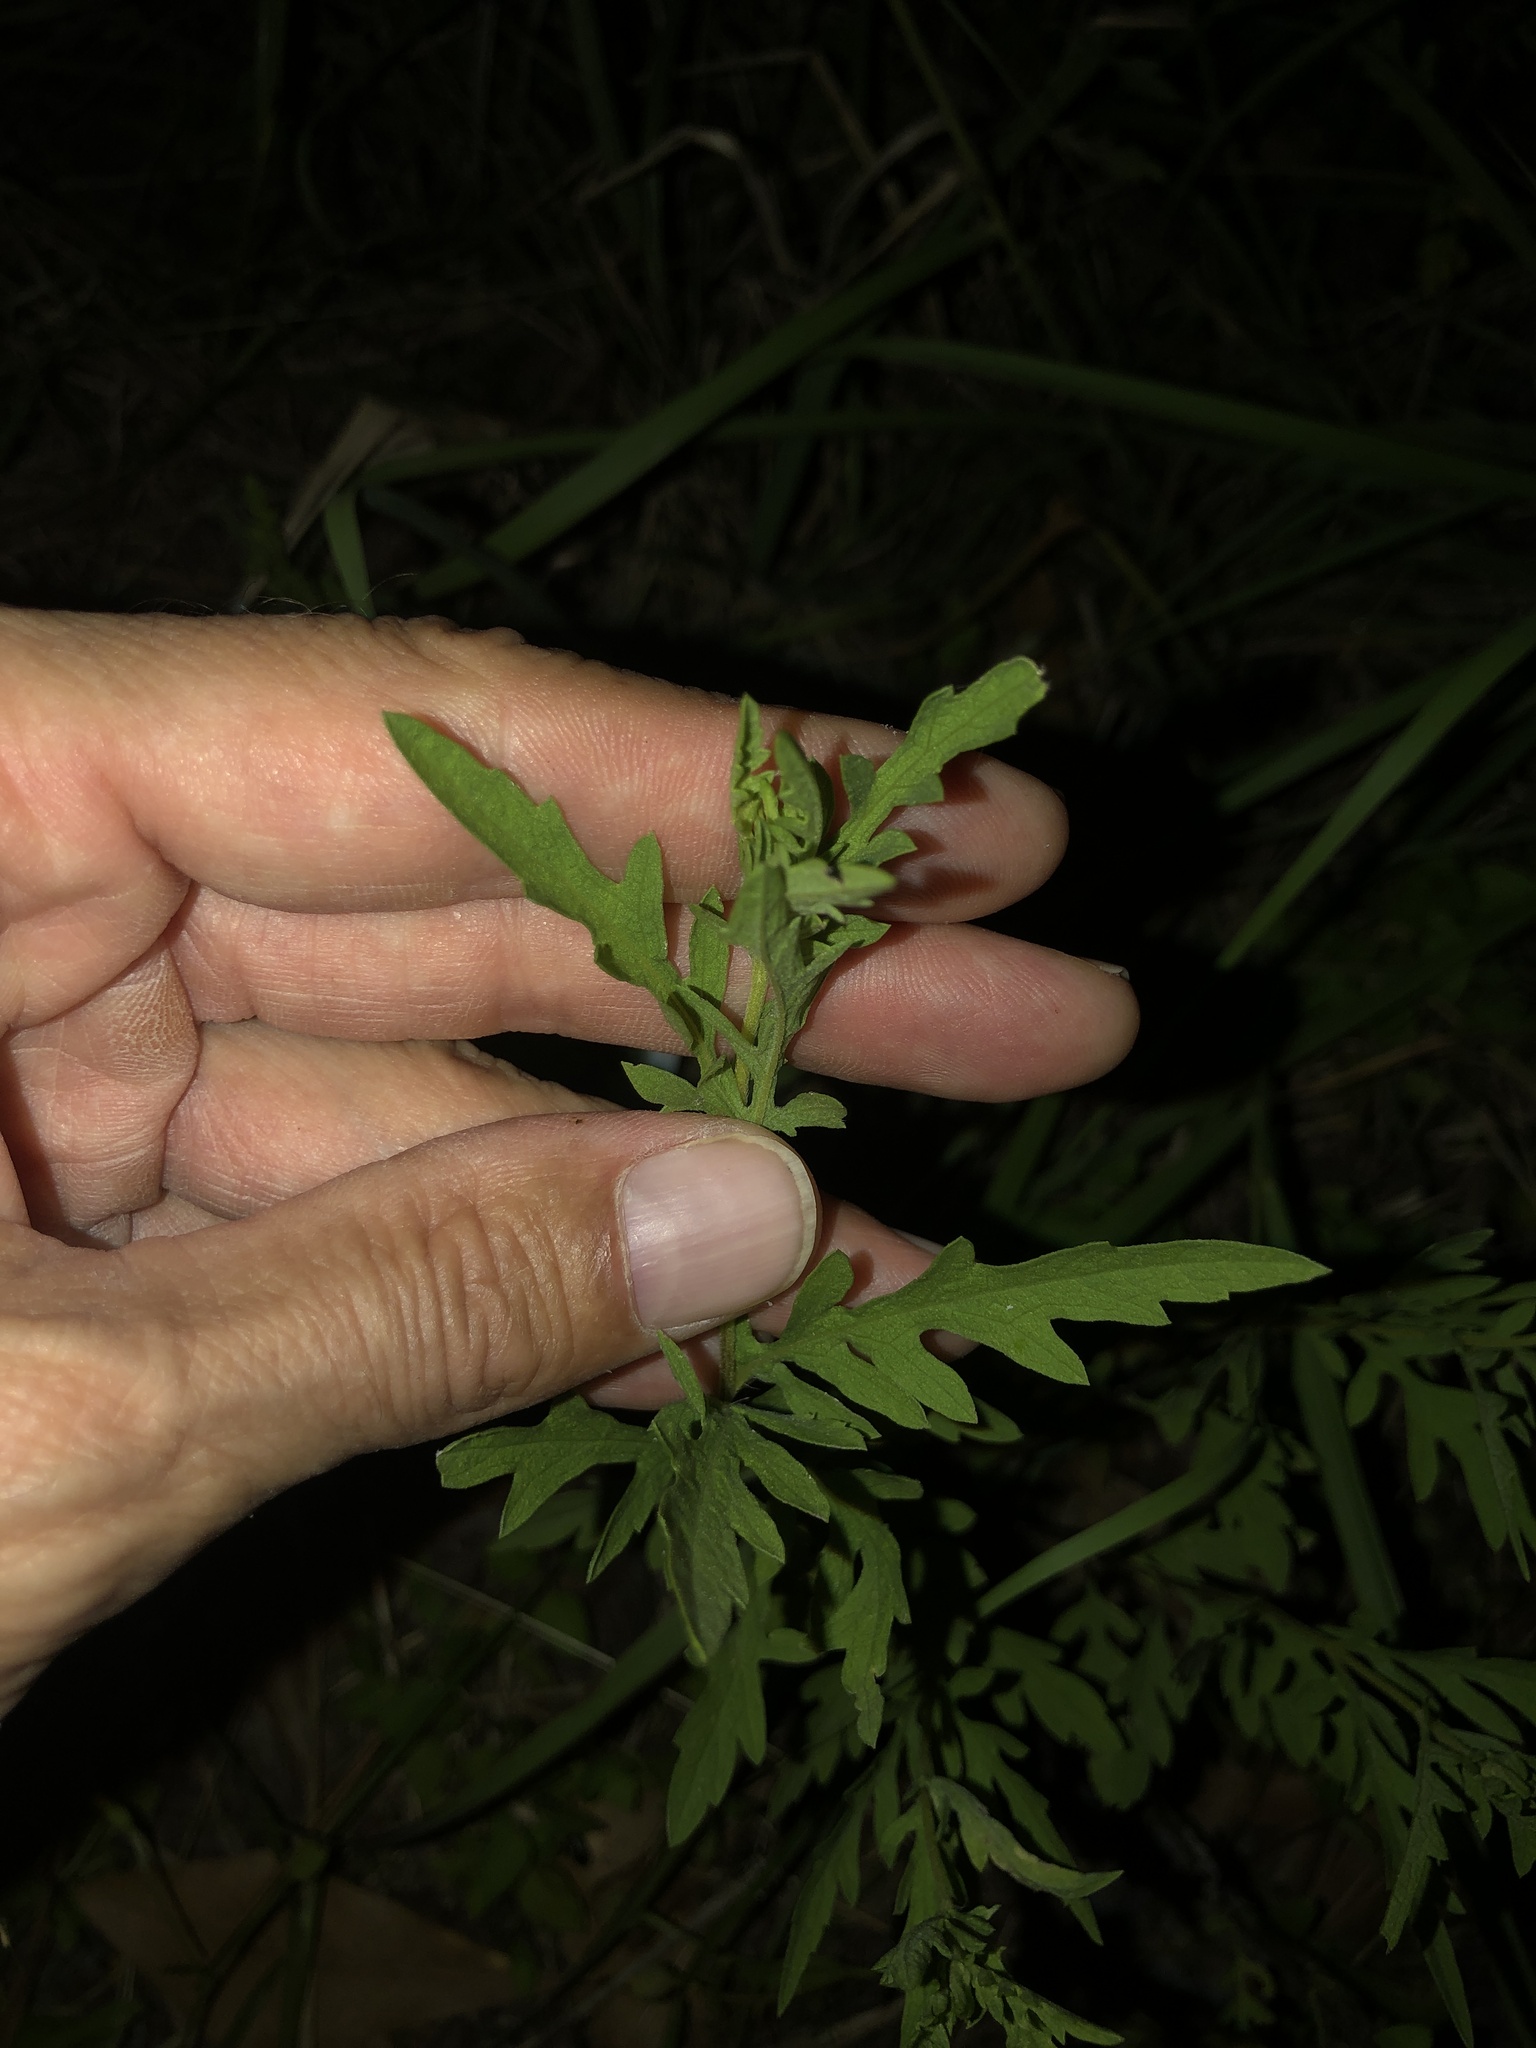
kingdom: Plantae
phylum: Tracheophyta
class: Magnoliopsida
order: Asterales
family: Asteraceae
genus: Ambrosia
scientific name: Ambrosia psilostachya
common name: Perennial ragweed
